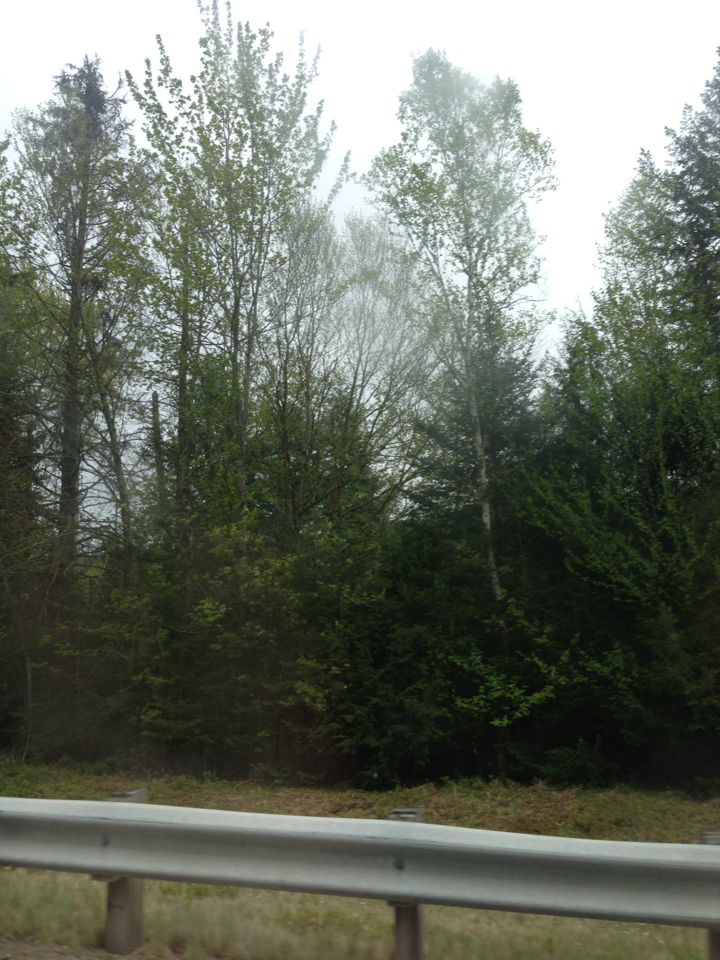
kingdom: Plantae
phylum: Tracheophyta
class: Magnoliopsida
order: Malpighiales
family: Salicaceae
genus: Populus
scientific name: Populus tremuloides
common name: Quaking aspen
